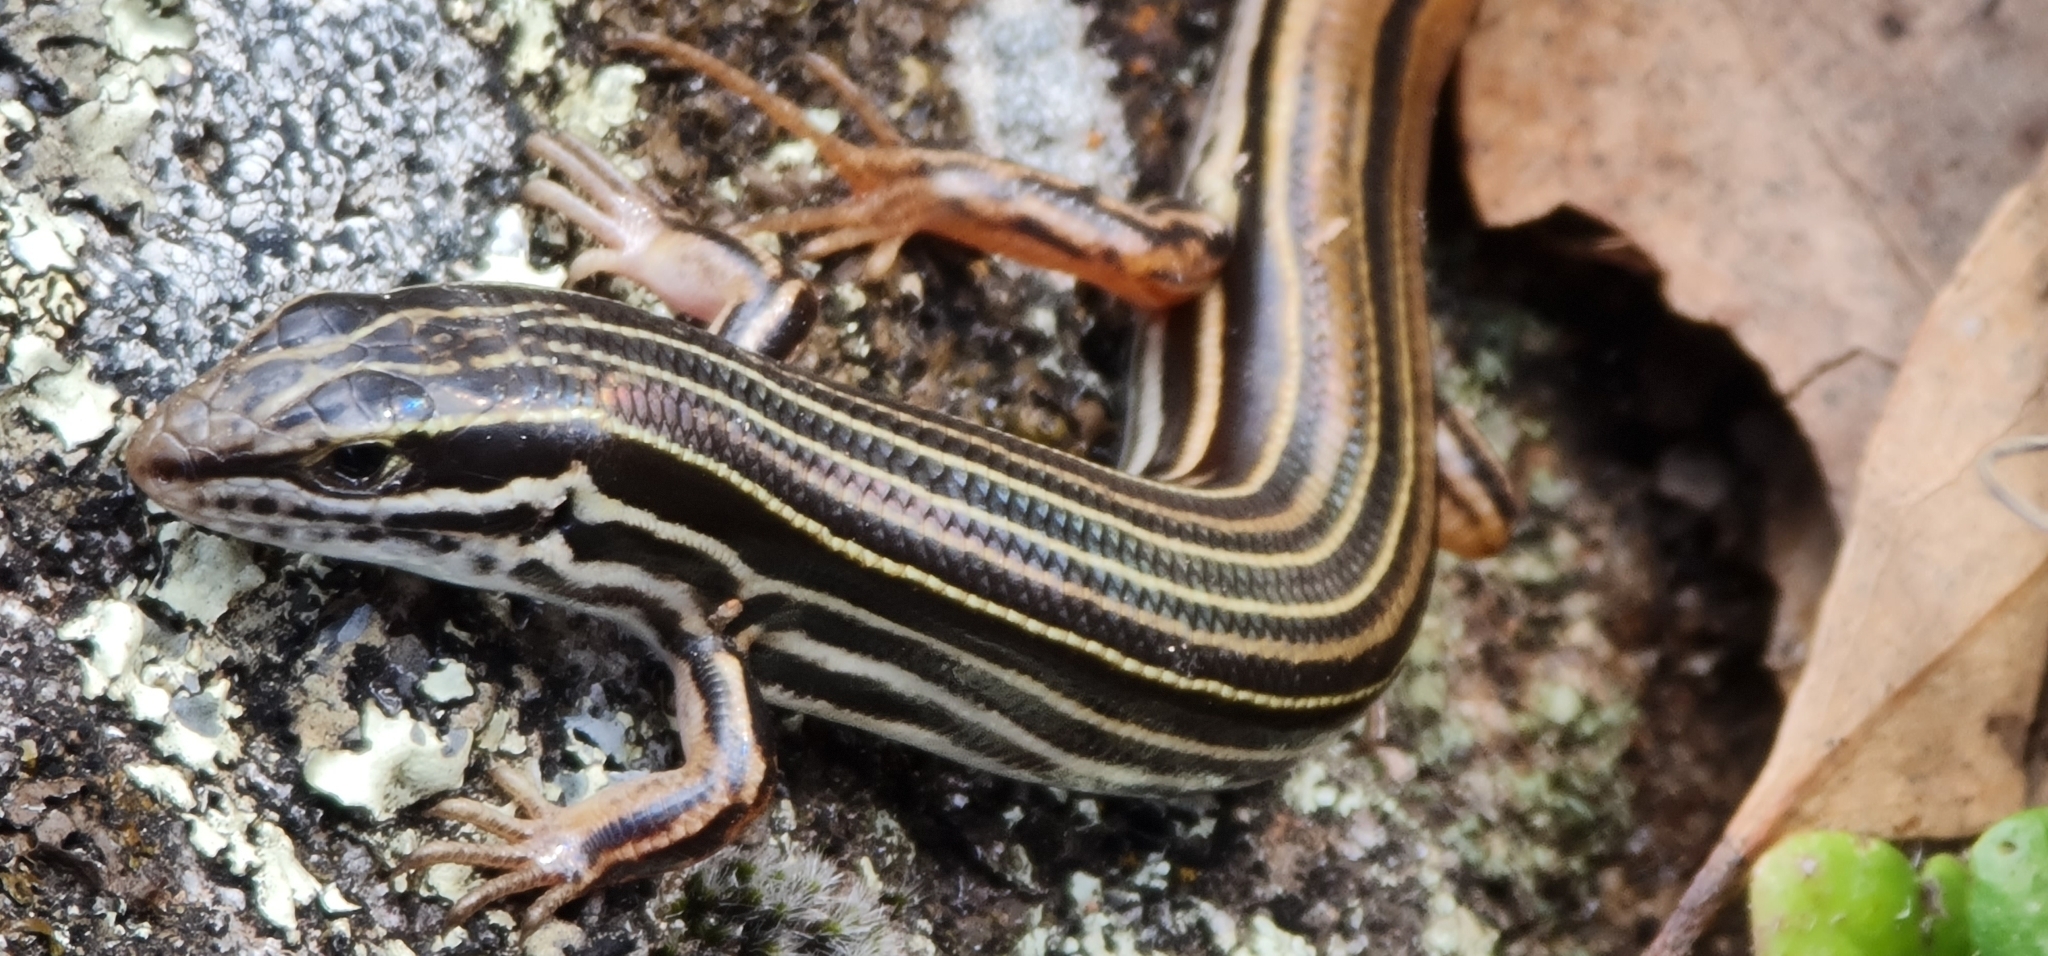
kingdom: Animalia
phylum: Chordata
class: Squamata
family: Scincidae
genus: Ctenotus
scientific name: Ctenotus taeniolatus
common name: Copper-tailed skink
